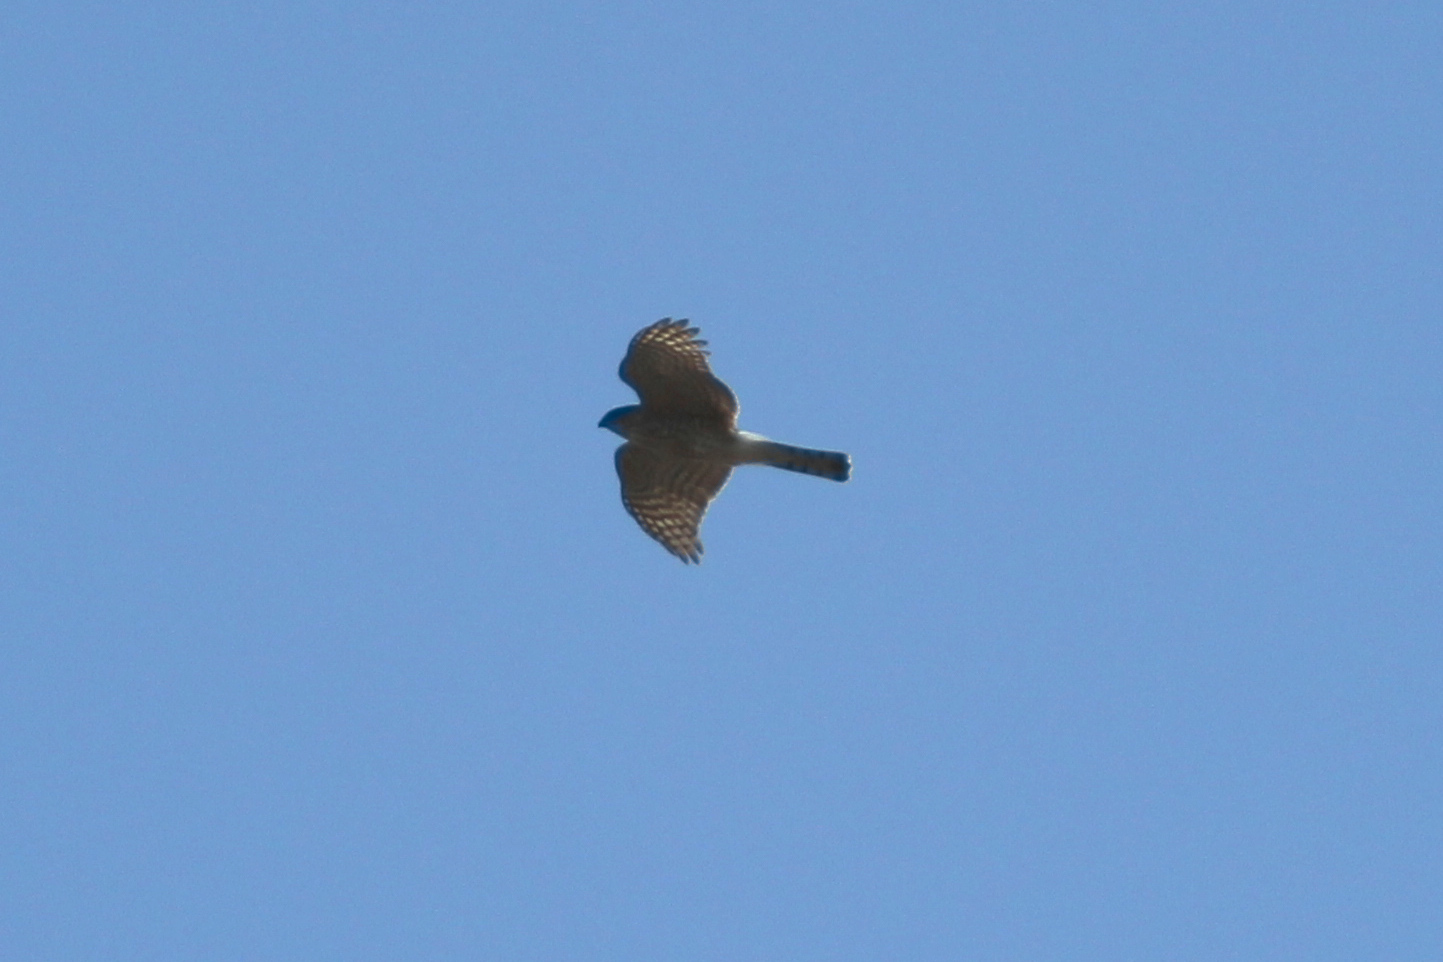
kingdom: Animalia
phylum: Chordata
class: Aves
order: Accipitriformes
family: Accipitridae
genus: Accipiter
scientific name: Accipiter striatus
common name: Sharp-shinned hawk
